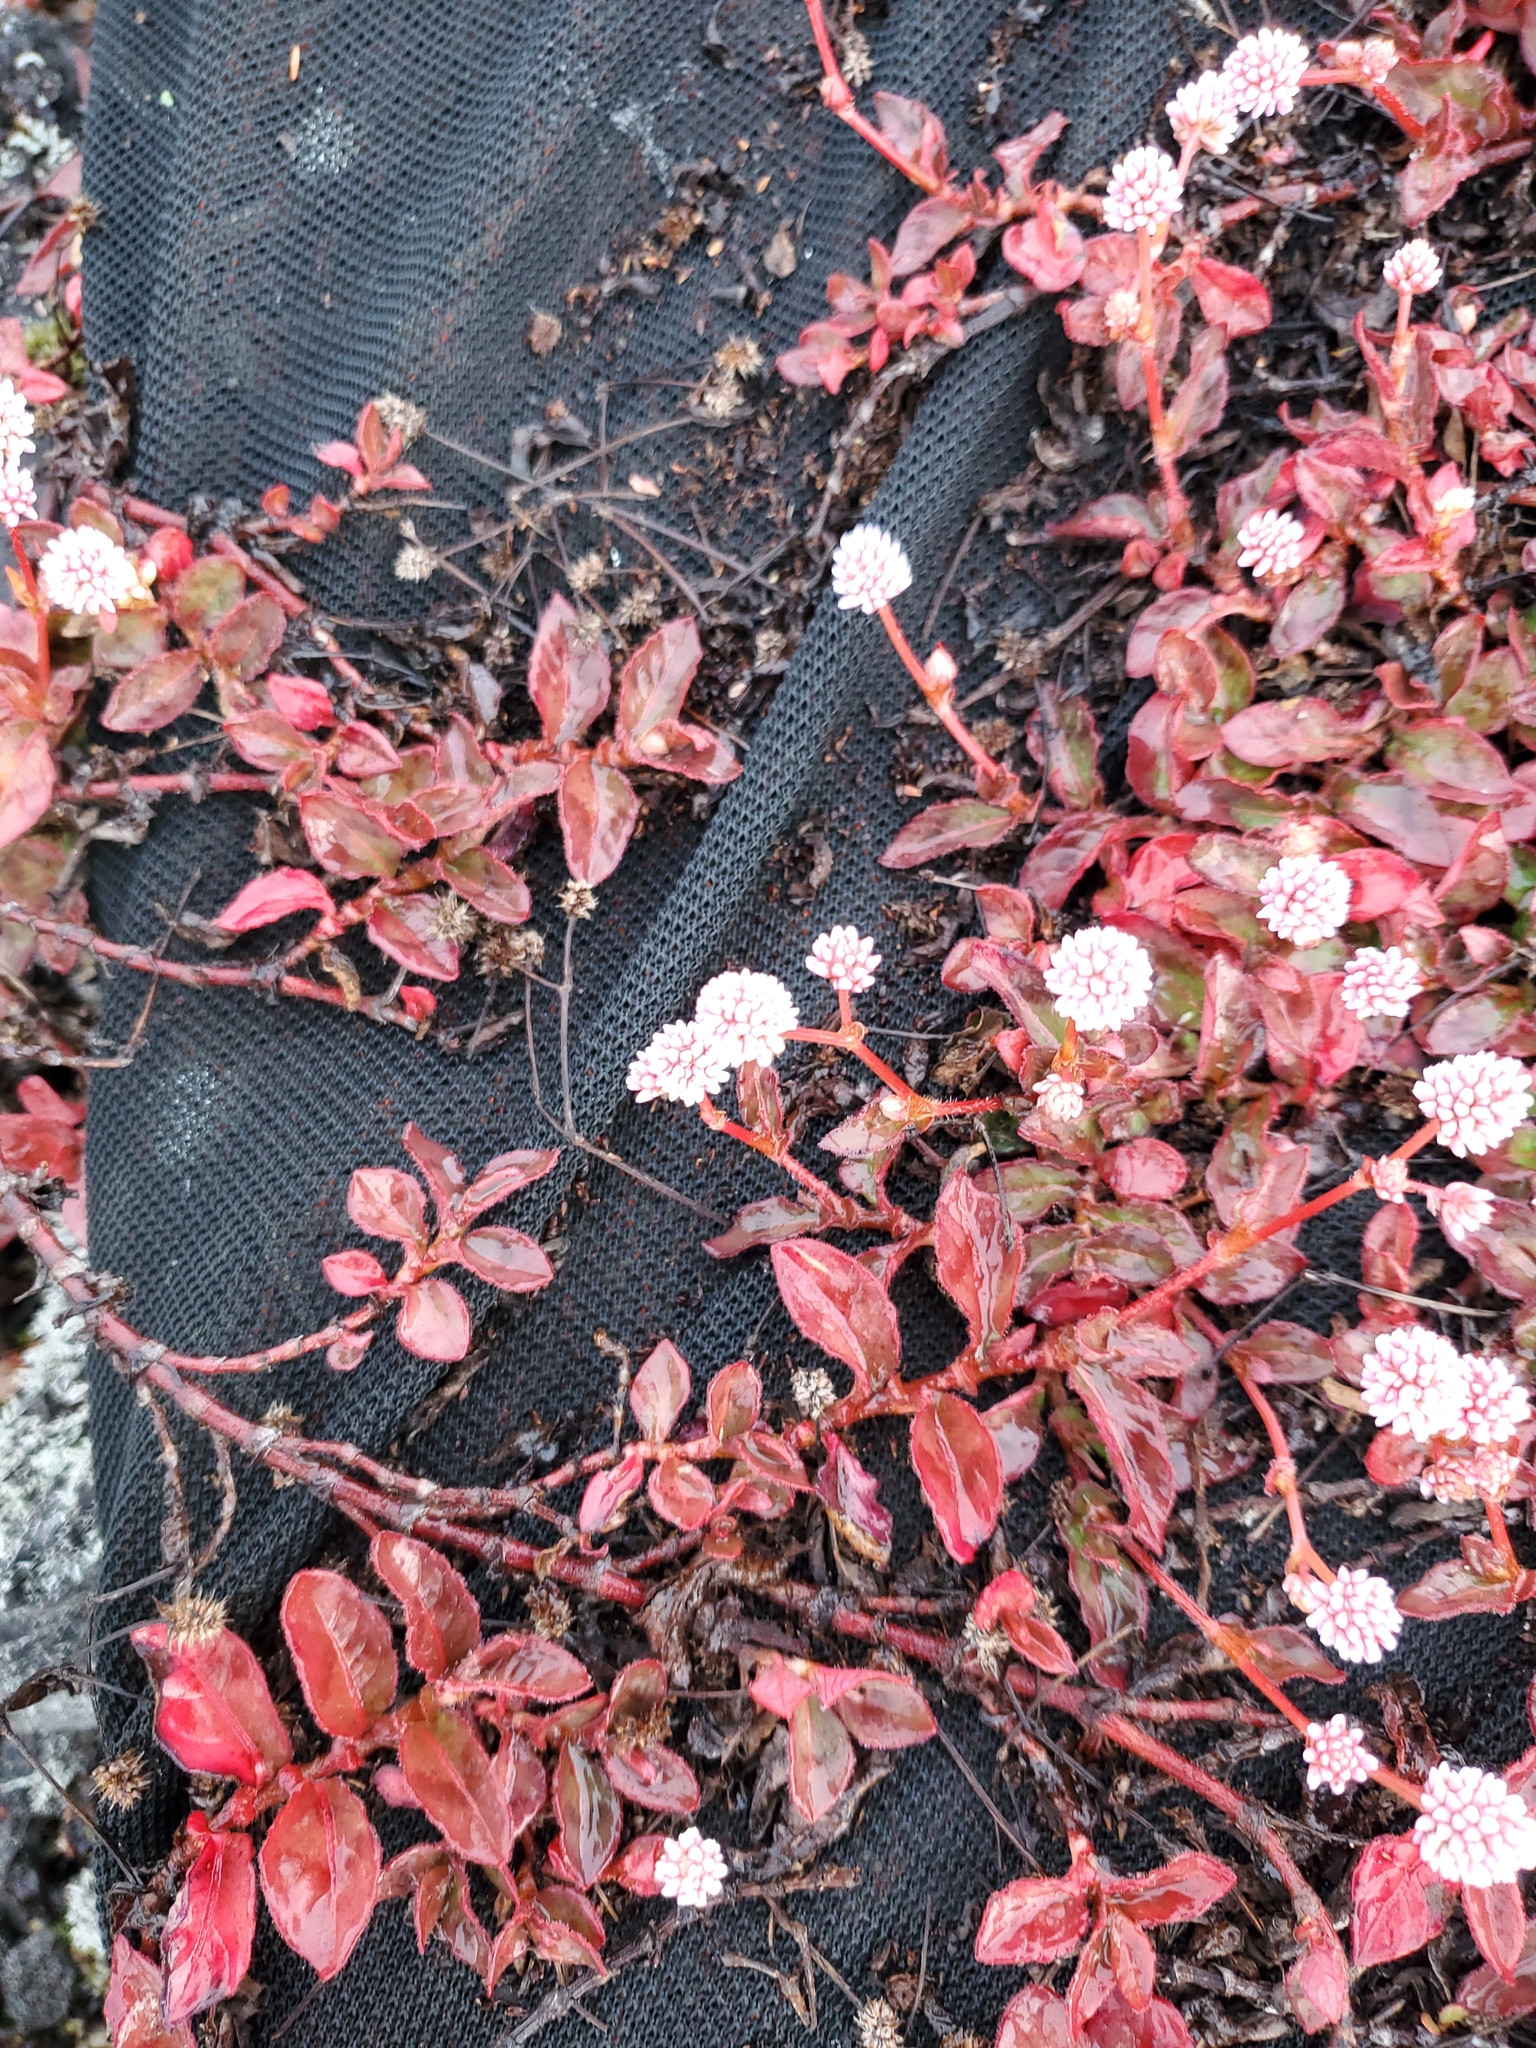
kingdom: Plantae
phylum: Tracheophyta
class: Magnoliopsida
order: Caryophyllales
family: Polygonaceae
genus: Persicaria
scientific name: Persicaria capitata
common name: Pinkhead smartweed
